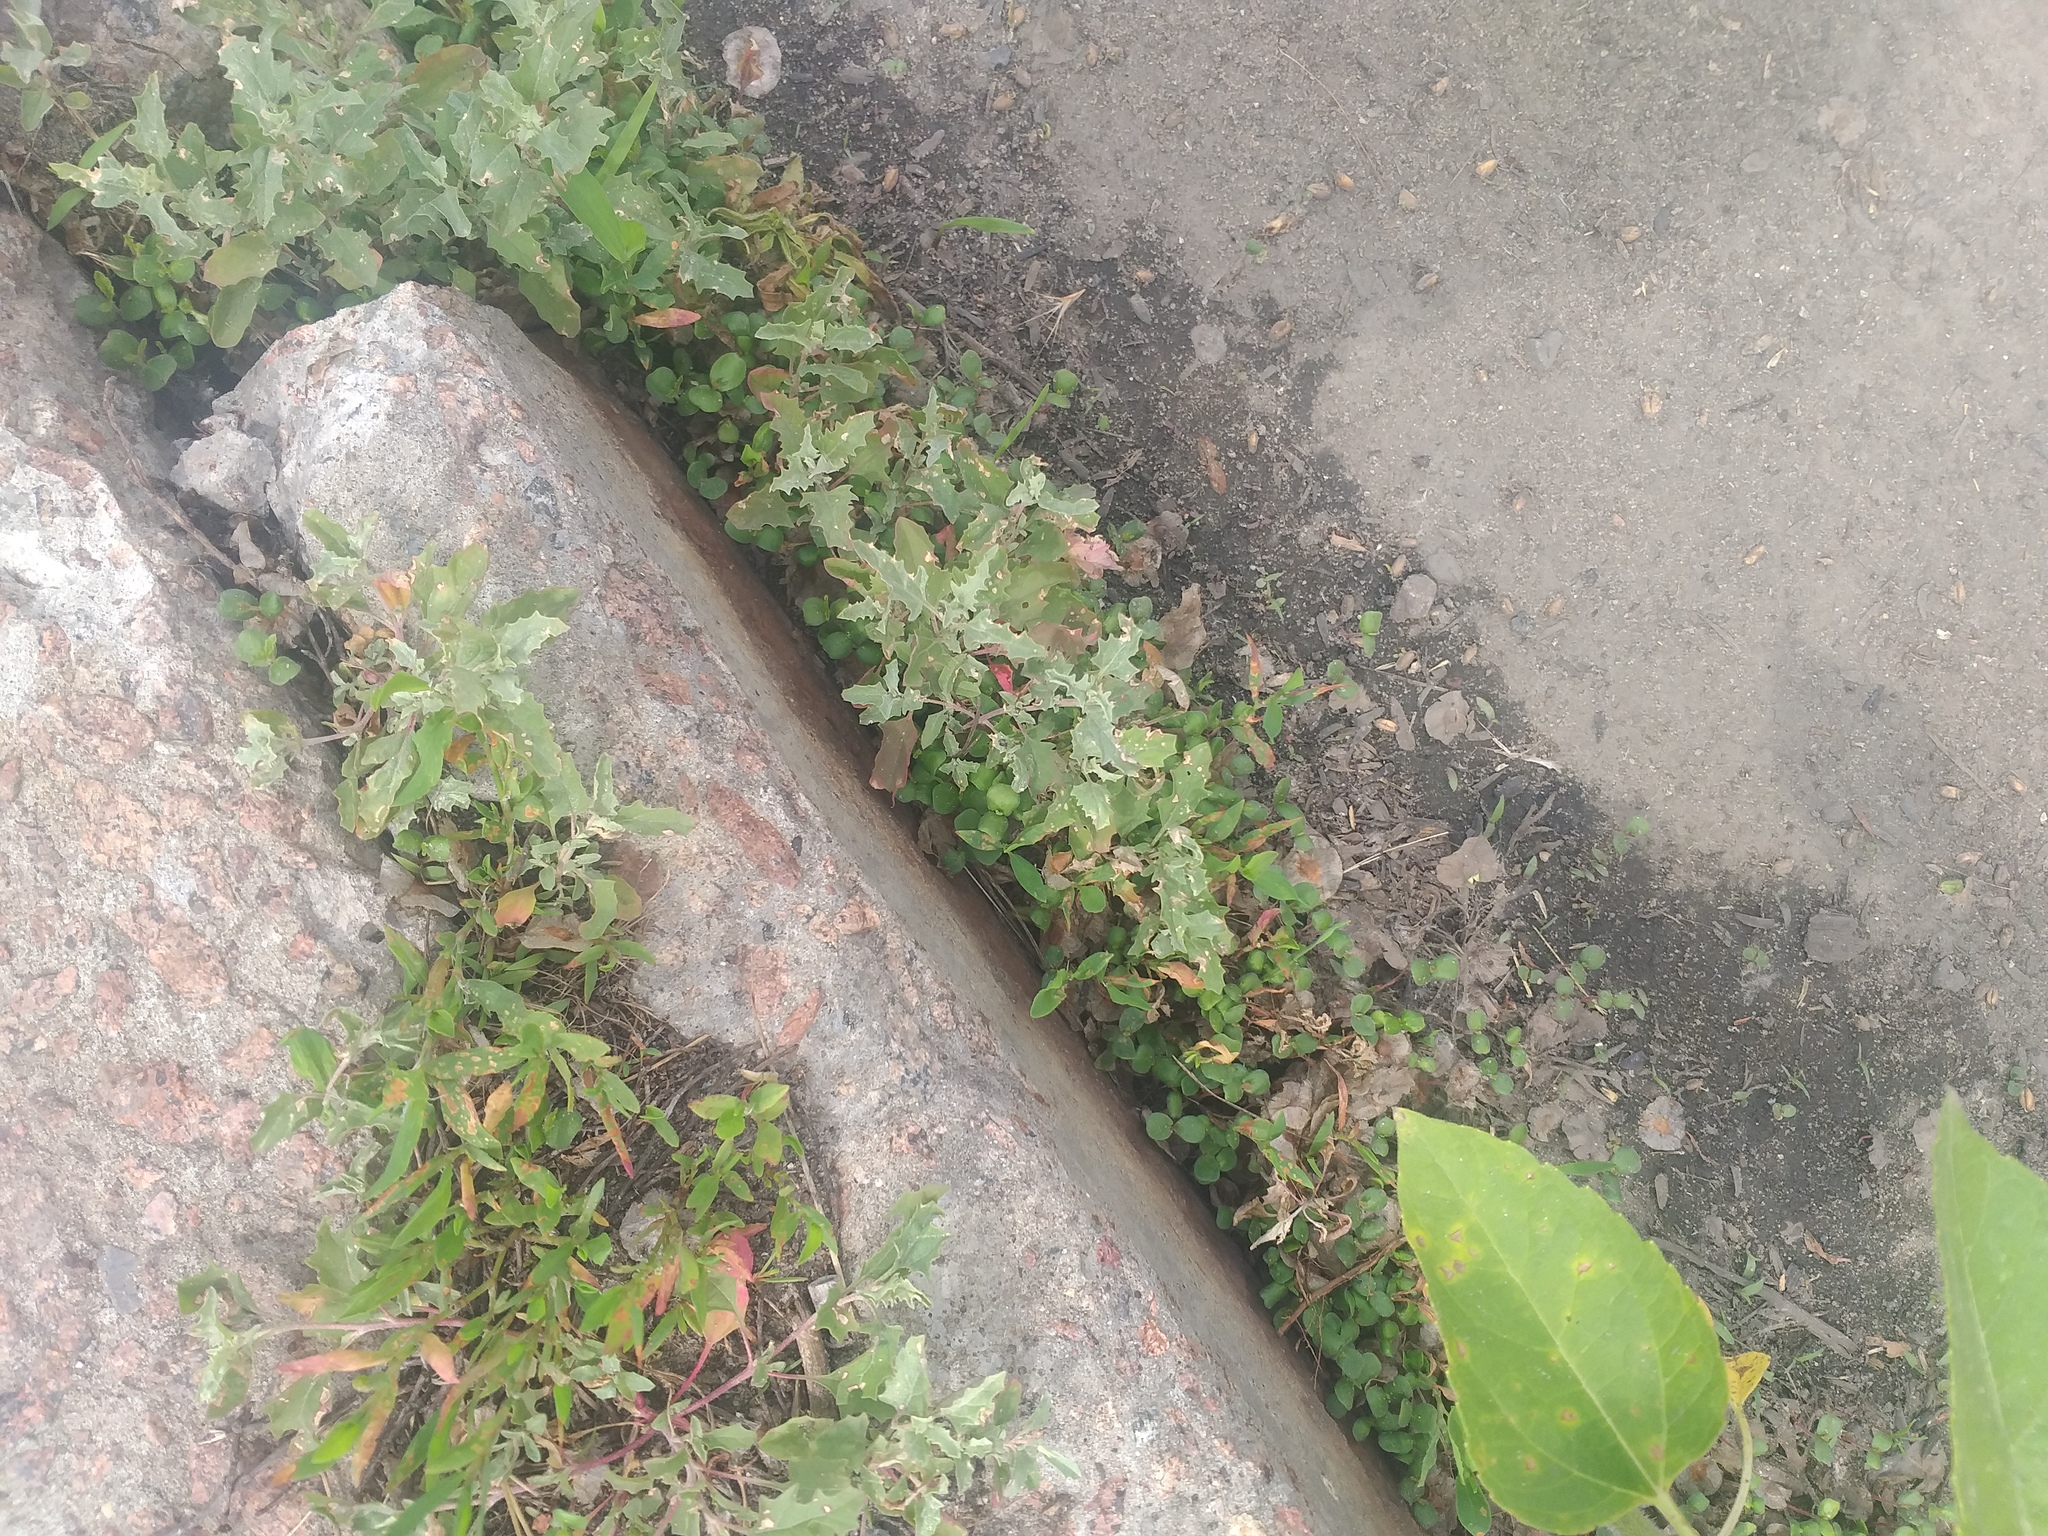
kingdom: Plantae
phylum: Tracheophyta
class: Magnoliopsida
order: Caryophyllales
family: Amaranthaceae
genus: Atriplex
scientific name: Atriplex tatarica
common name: Tatarian orache
